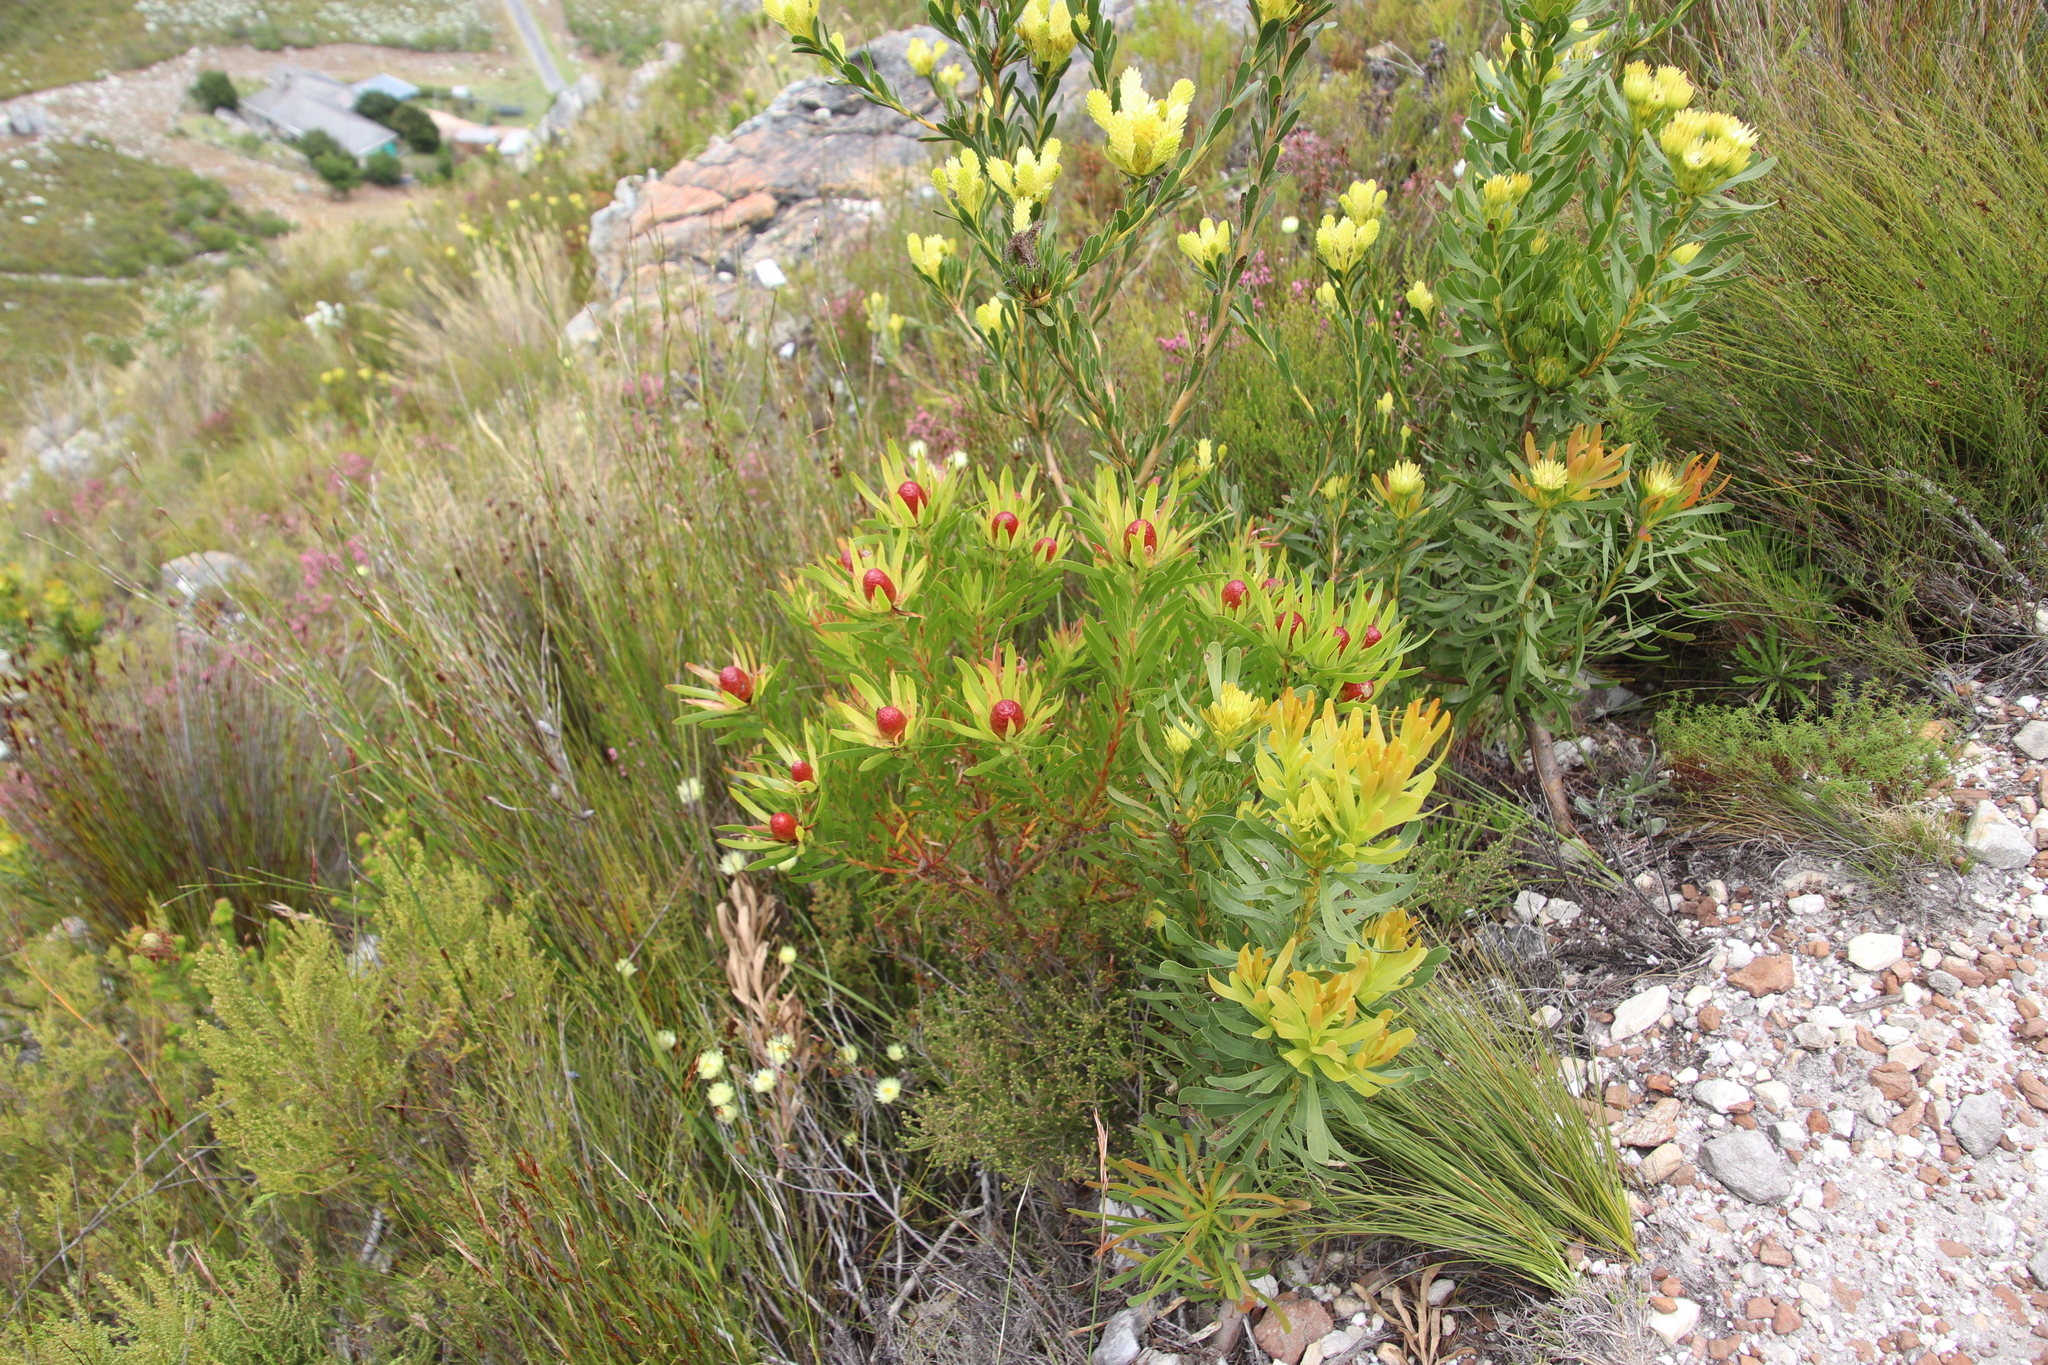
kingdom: Plantae
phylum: Tracheophyta
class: Magnoliopsida
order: Proteales
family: Proteaceae
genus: Leucadendron
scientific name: Leucadendron spissifolium
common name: Spear-leaf conebush
